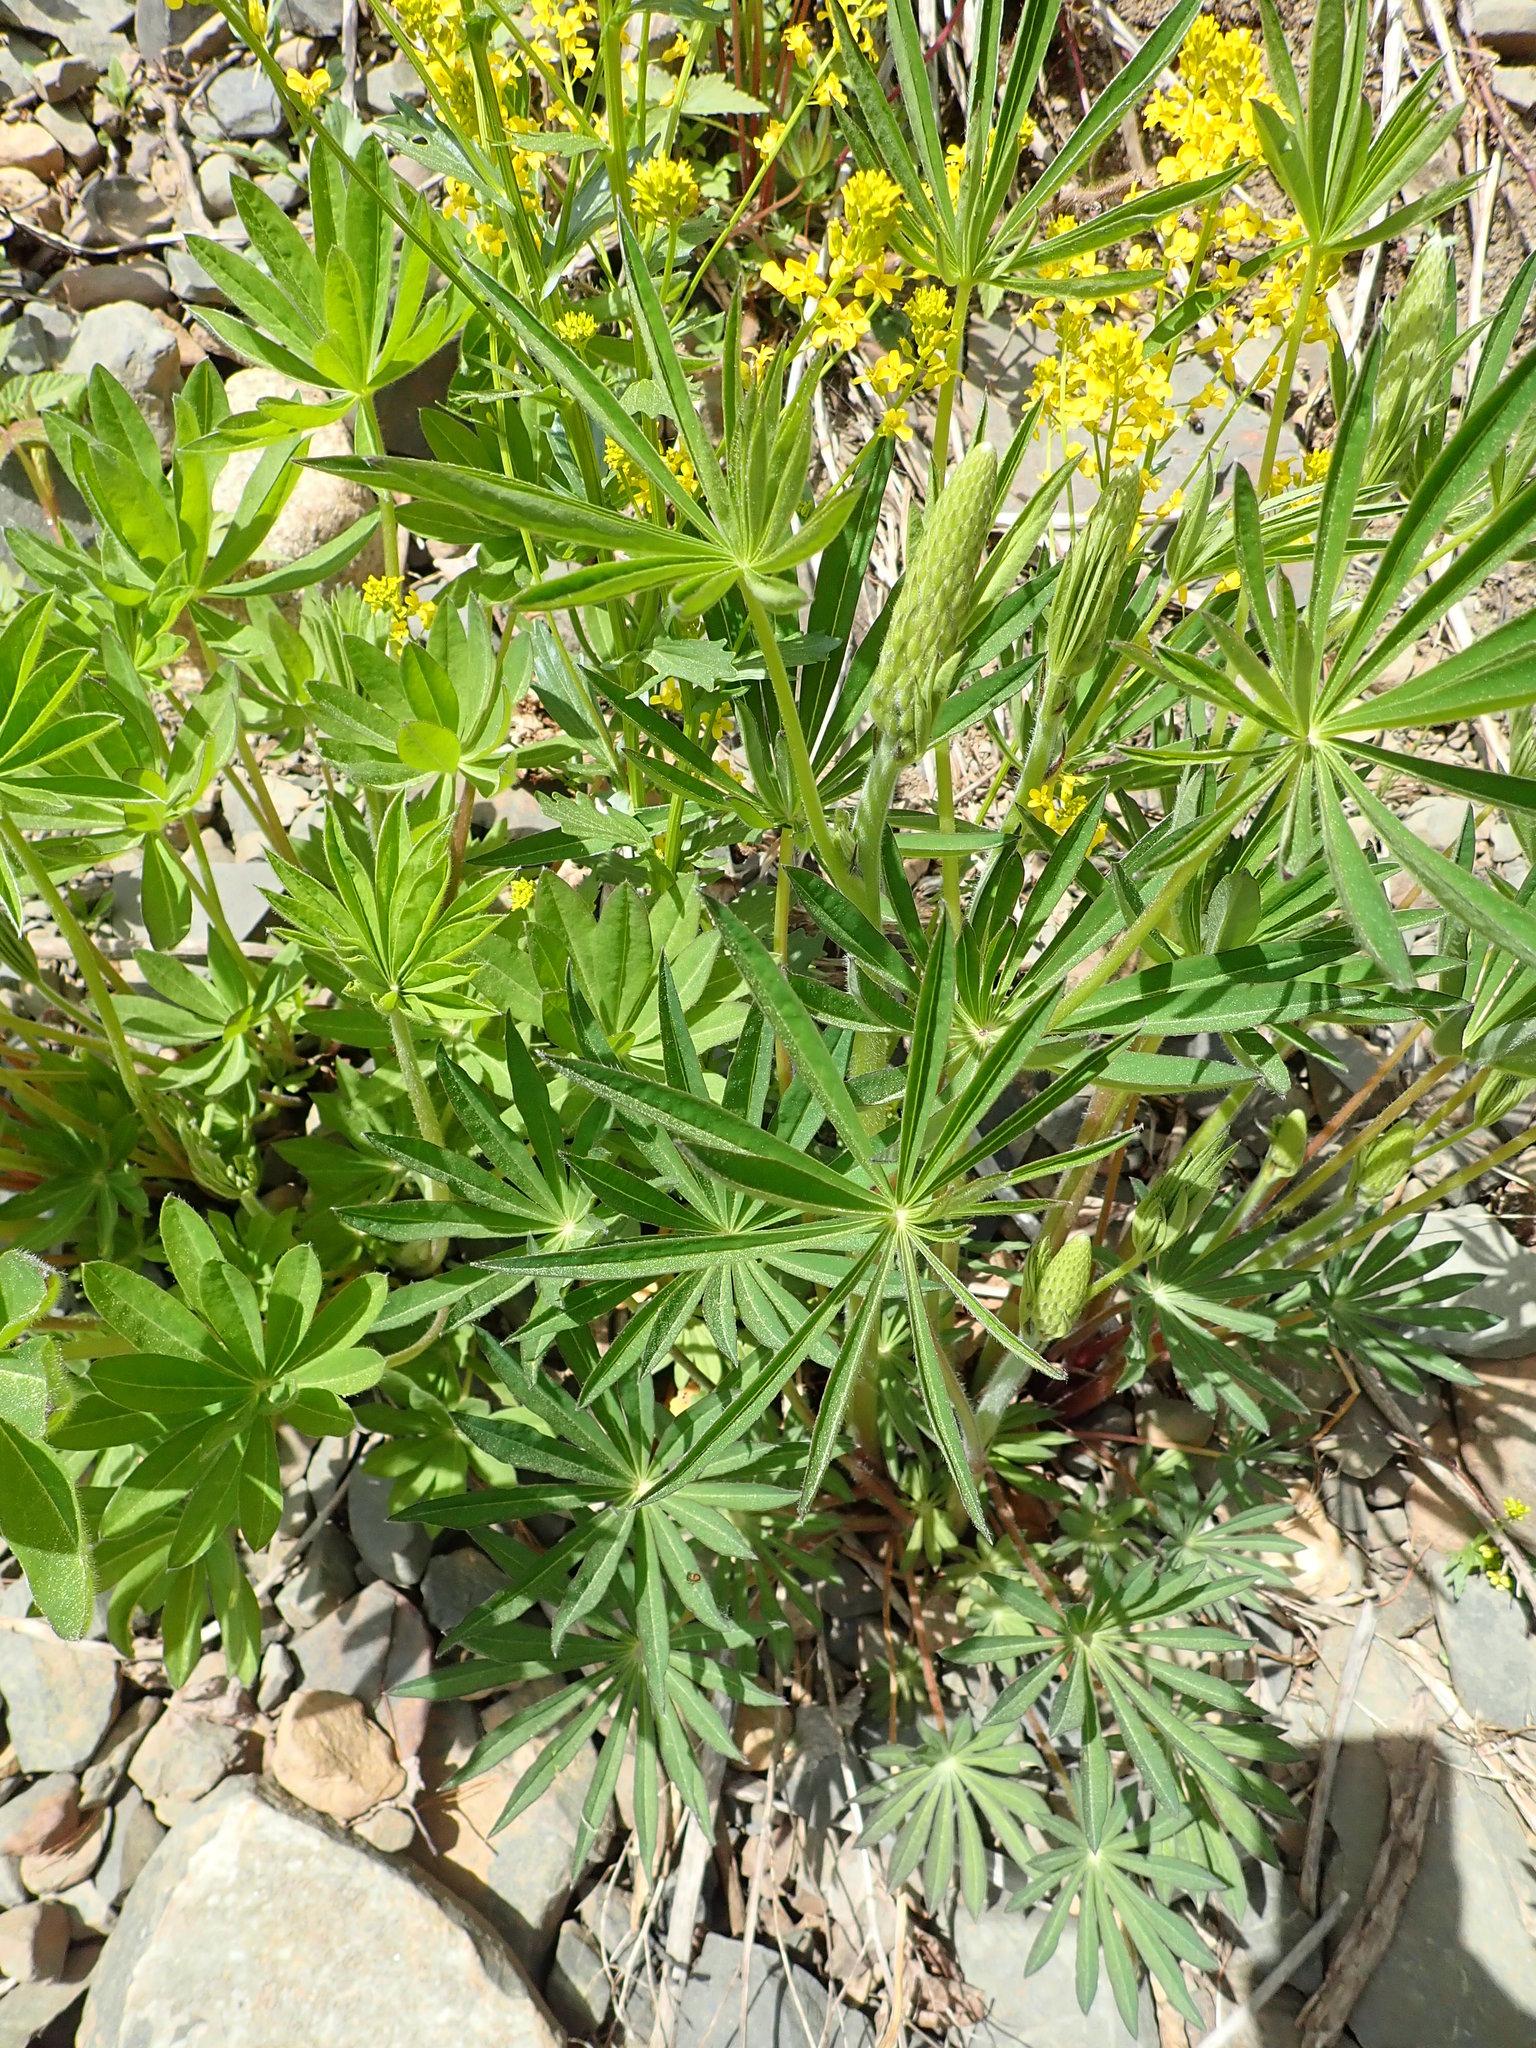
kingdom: Plantae
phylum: Tracheophyta
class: Magnoliopsida
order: Fabales
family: Fabaceae
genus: Lupinus
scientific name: Lupinus polyphyllus
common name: Garden lupin
